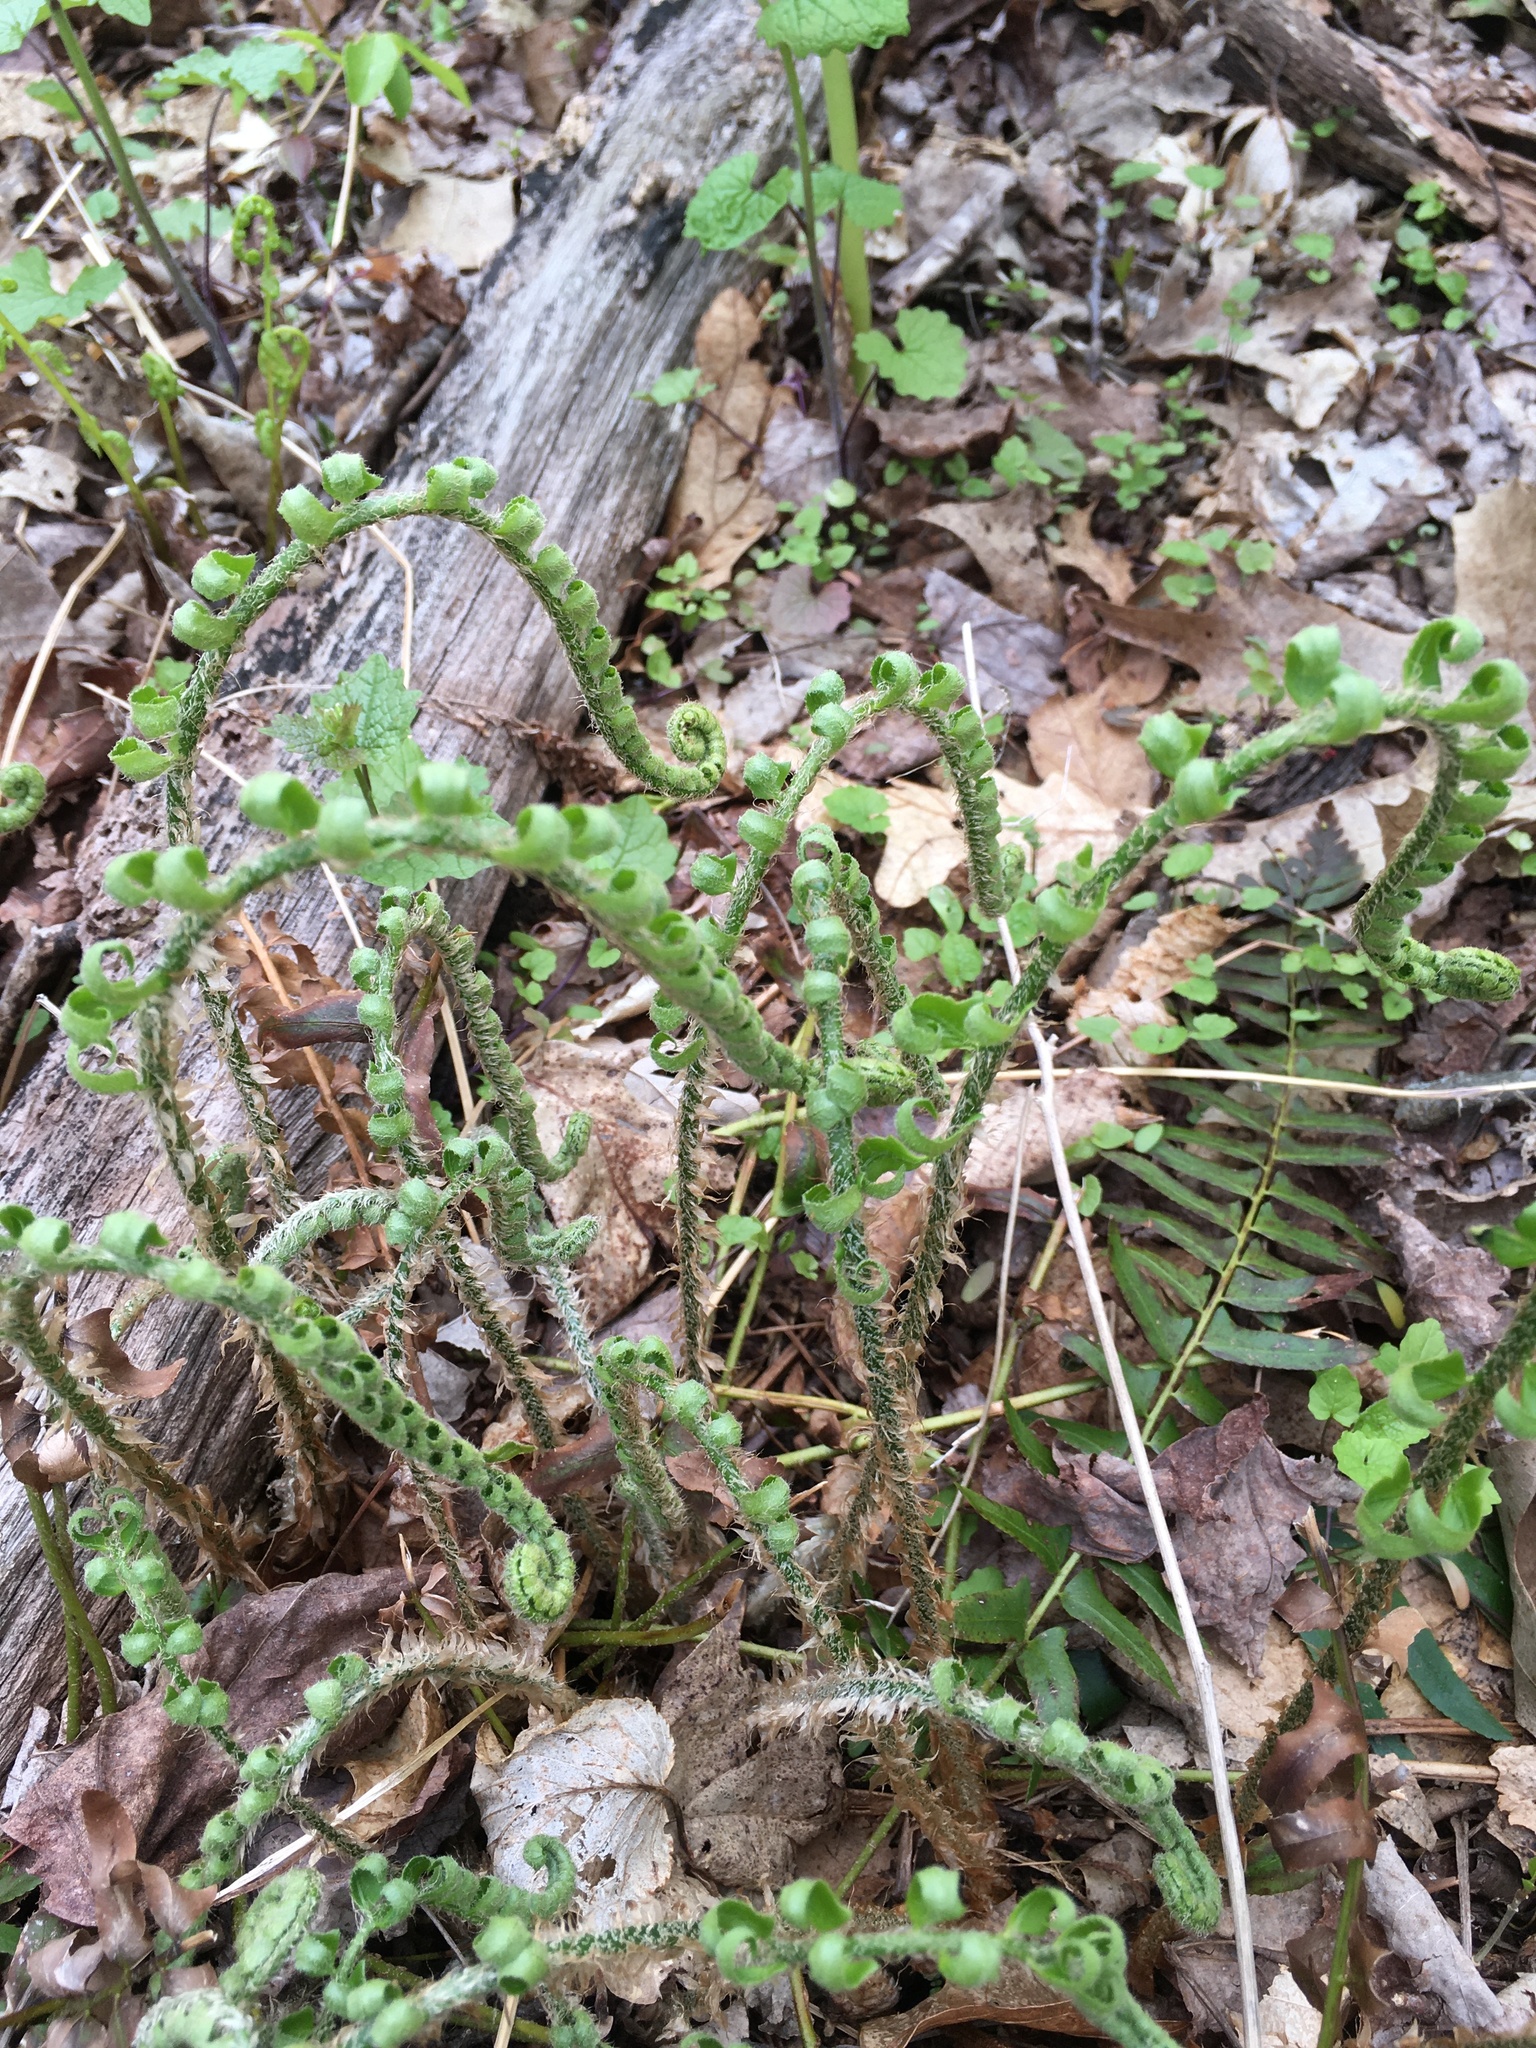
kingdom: Plantae
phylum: Tracheophyta
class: Polypodiopsida
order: Polypodiales
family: Dryopteridaceae
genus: Polystichum
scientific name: Polystichum acrostichoides
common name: Christmas fern
